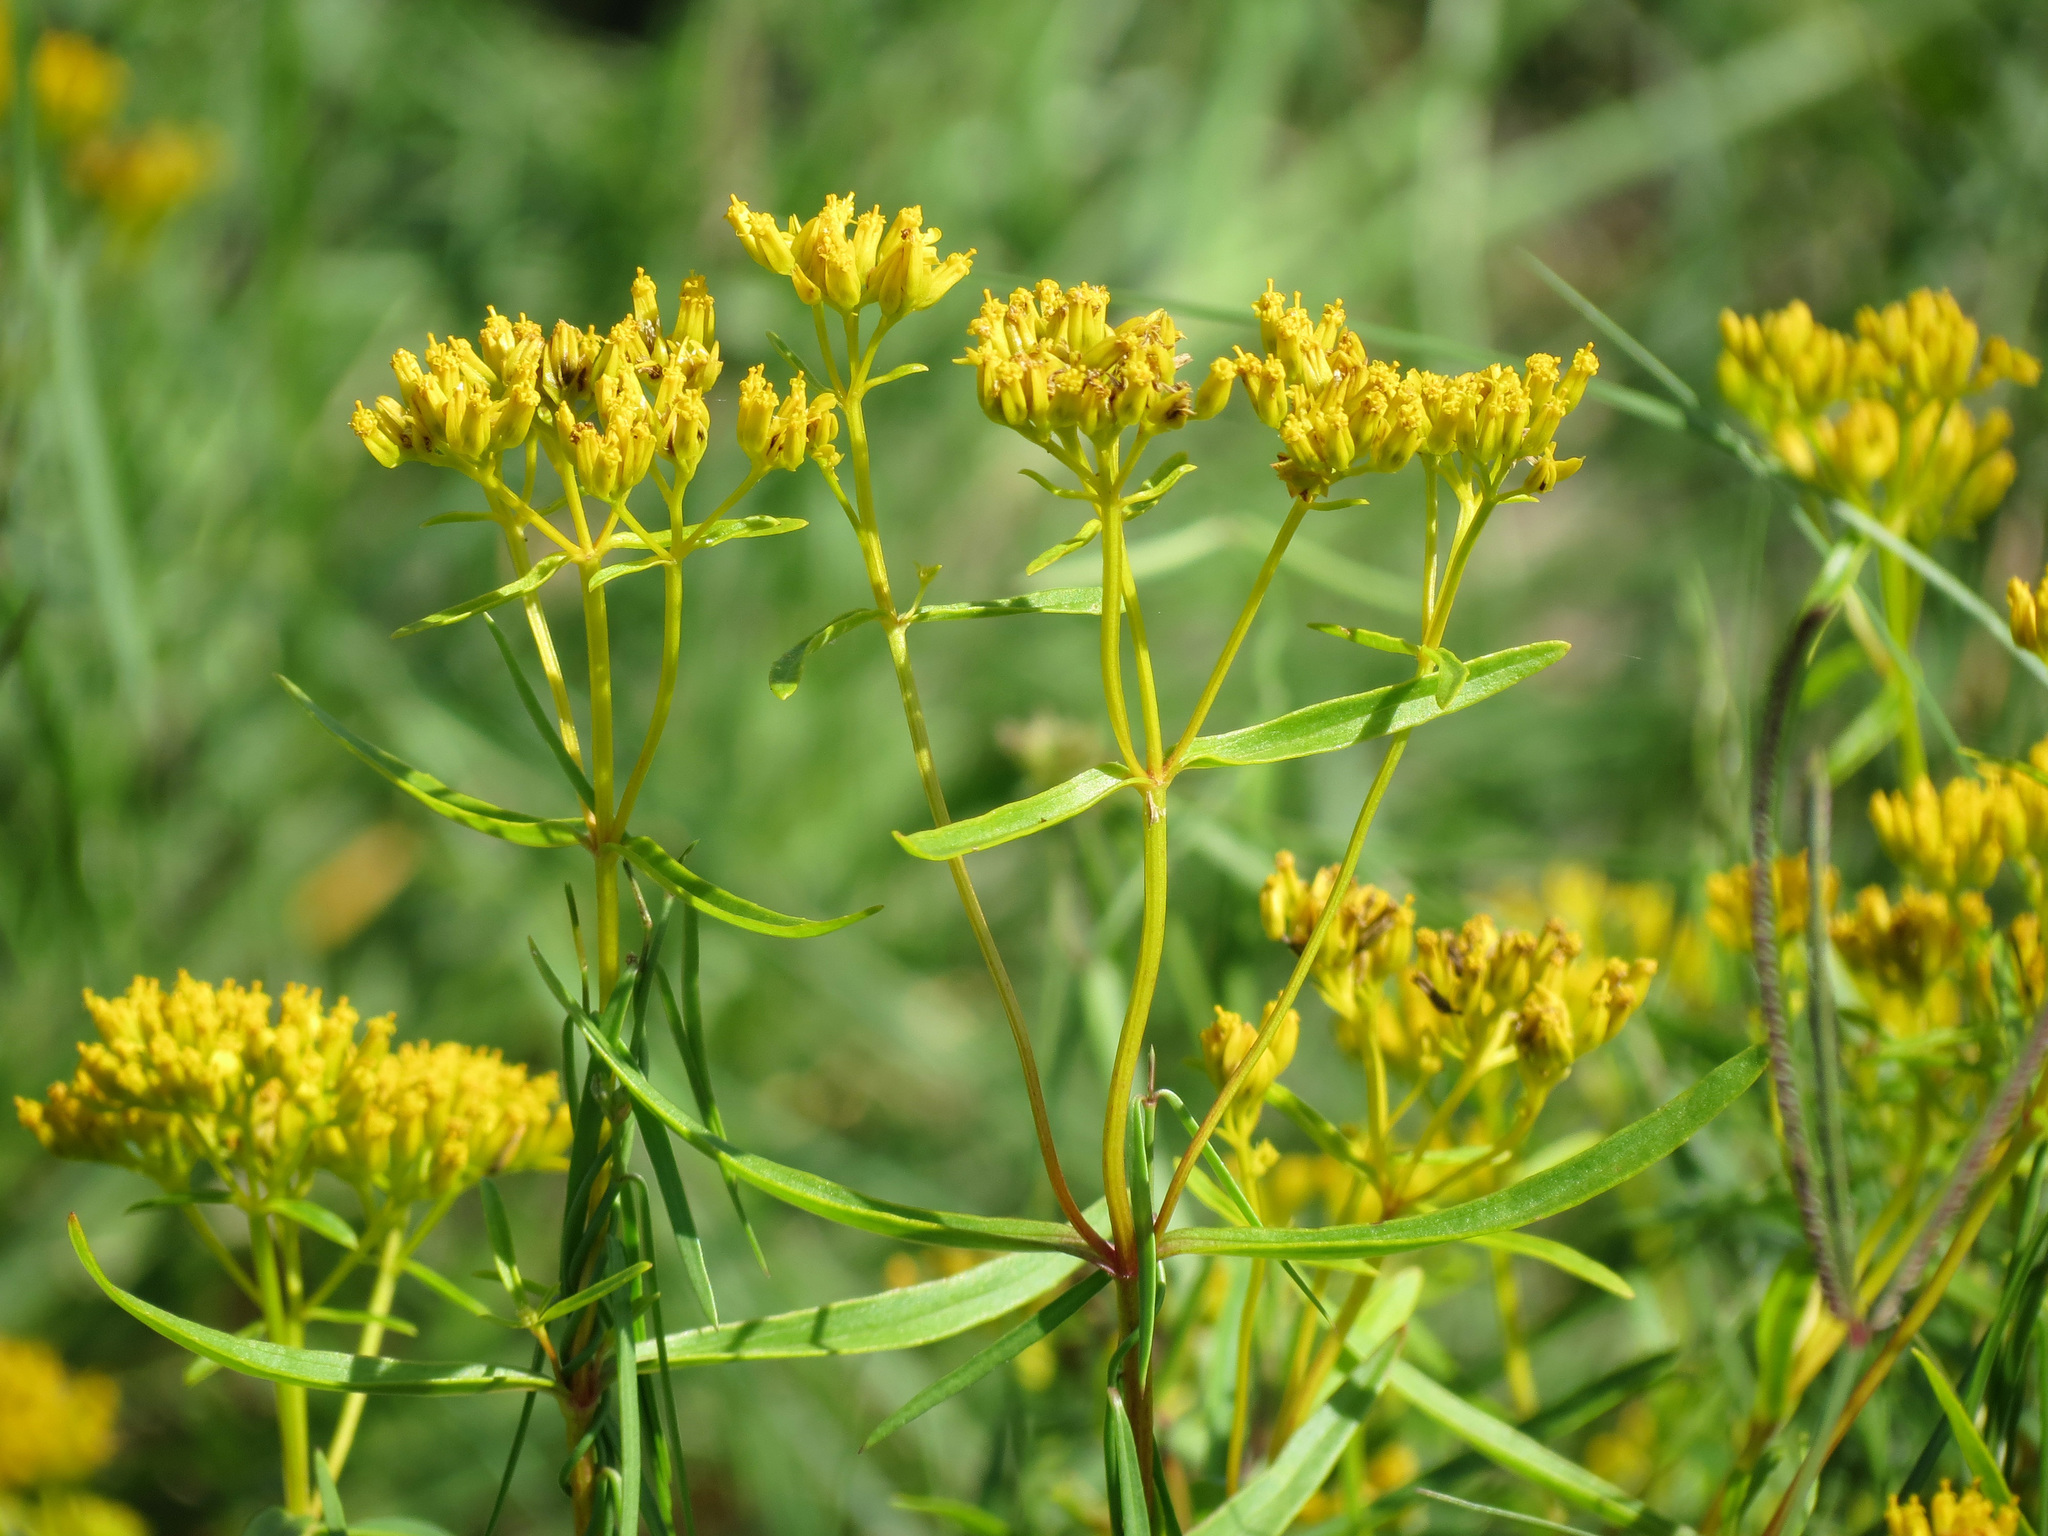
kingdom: Plantae
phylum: Tracheophyta
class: Magnoliopsida
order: Asterales
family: Asteraceae
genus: Flaveria
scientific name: Flaveria linearis
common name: Yellowtop
